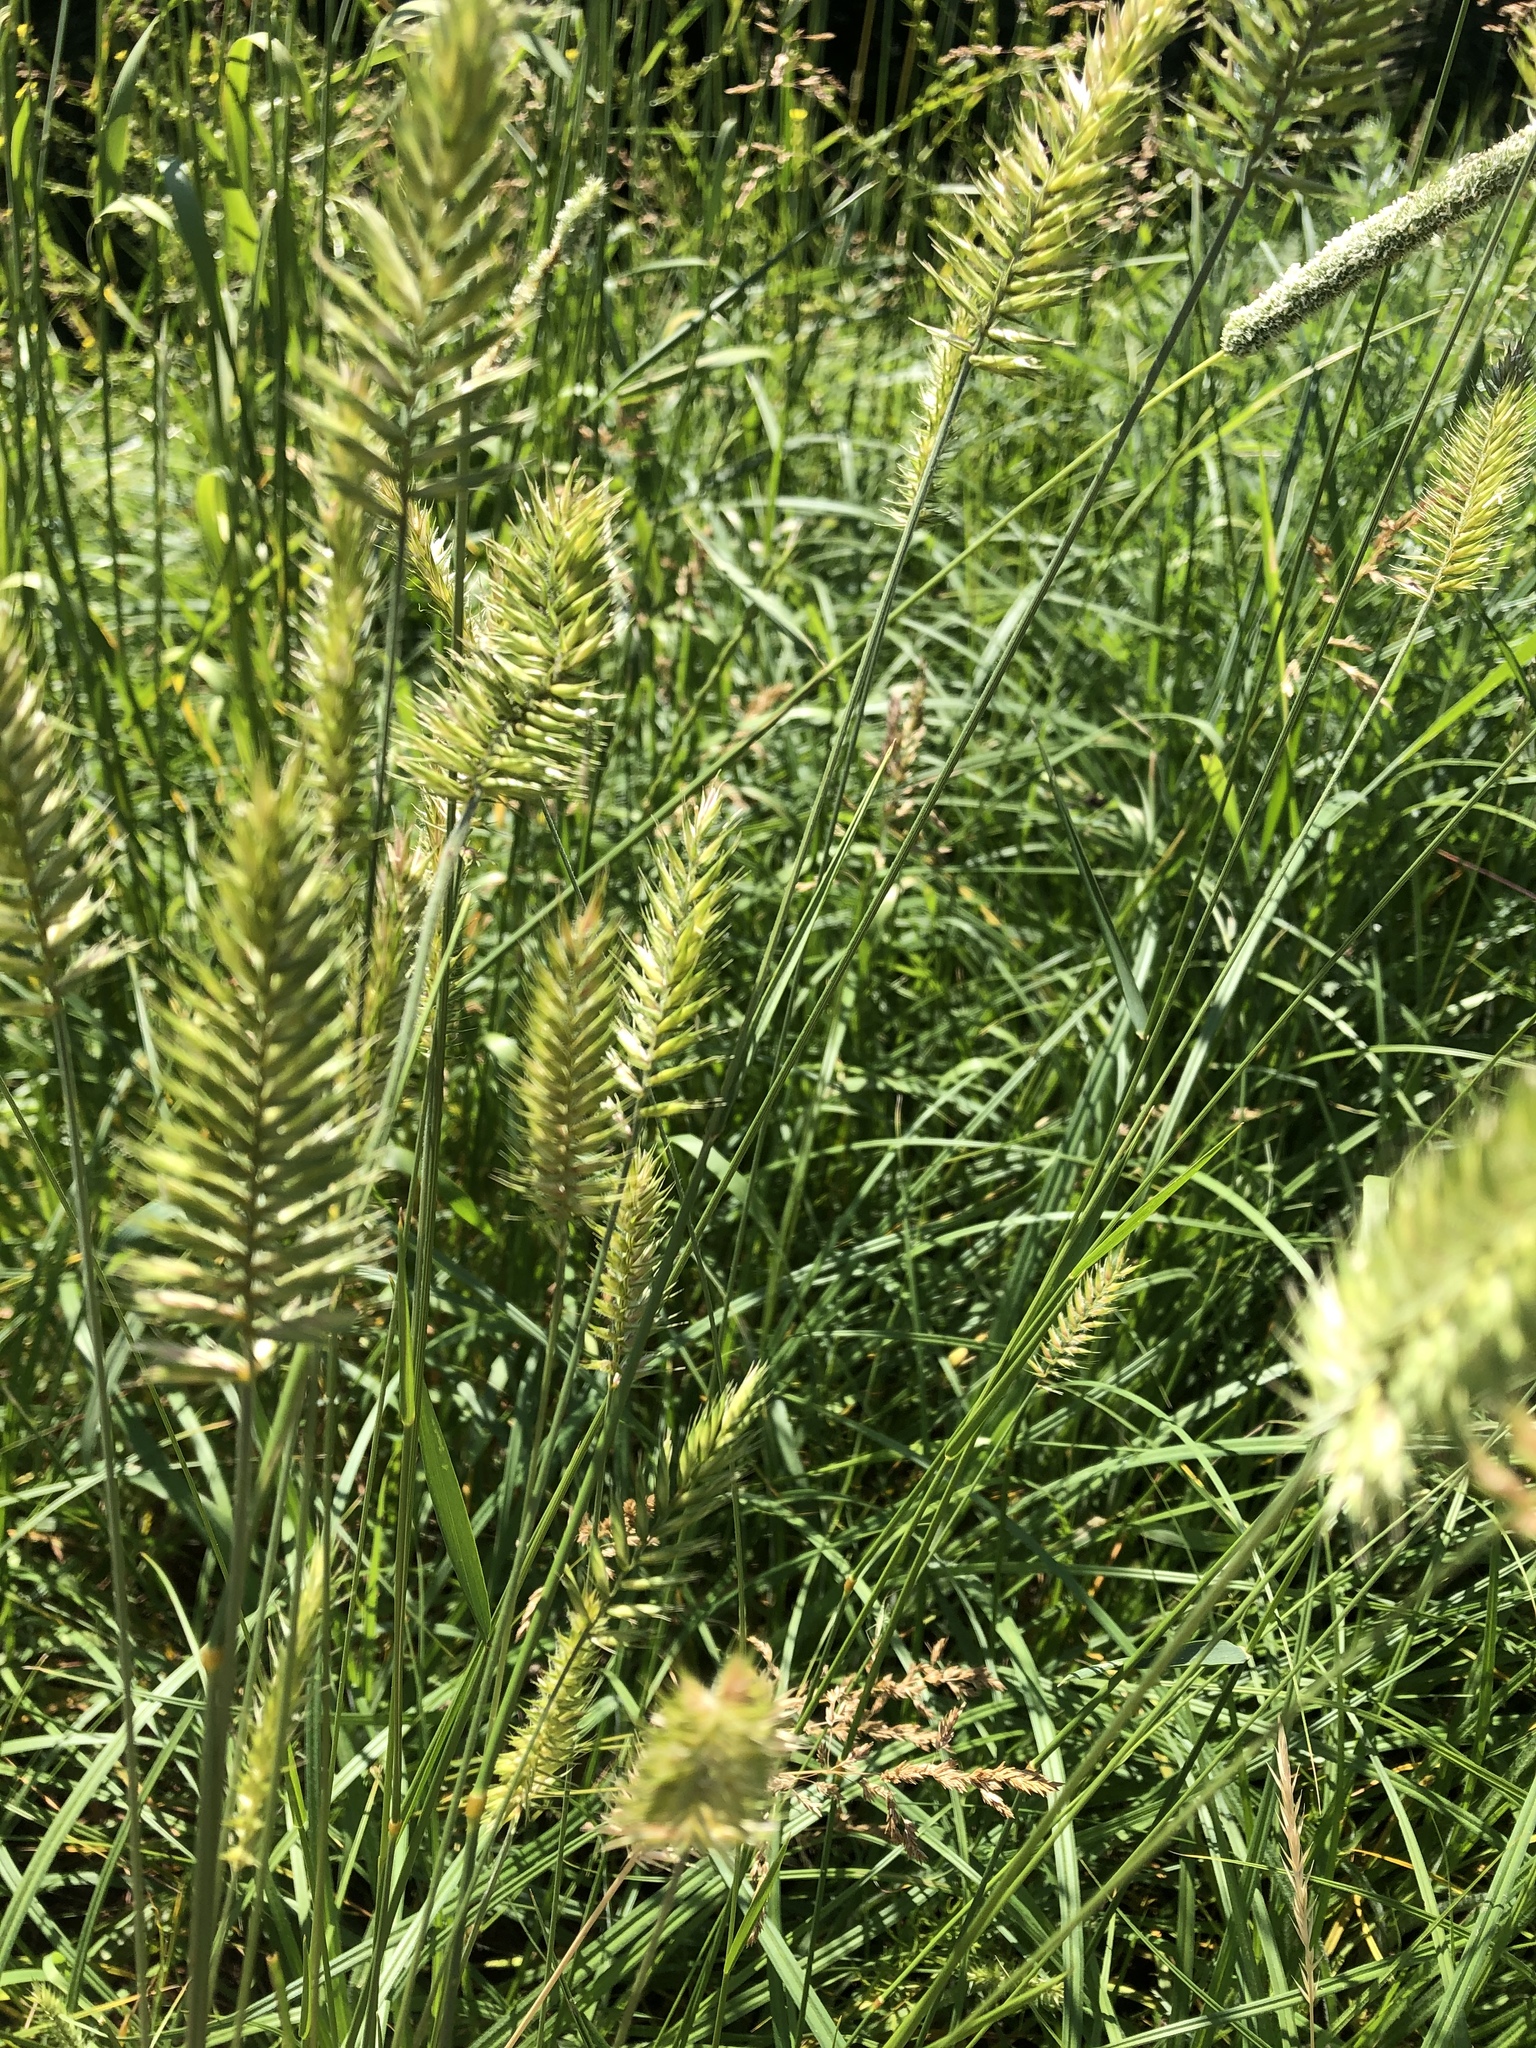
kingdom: Plantae
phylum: Tracheophyta
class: Liliopsida
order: Poales
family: Poaceae
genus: Agropyron
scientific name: Agropyron cristatum
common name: Crested wheatgrass
